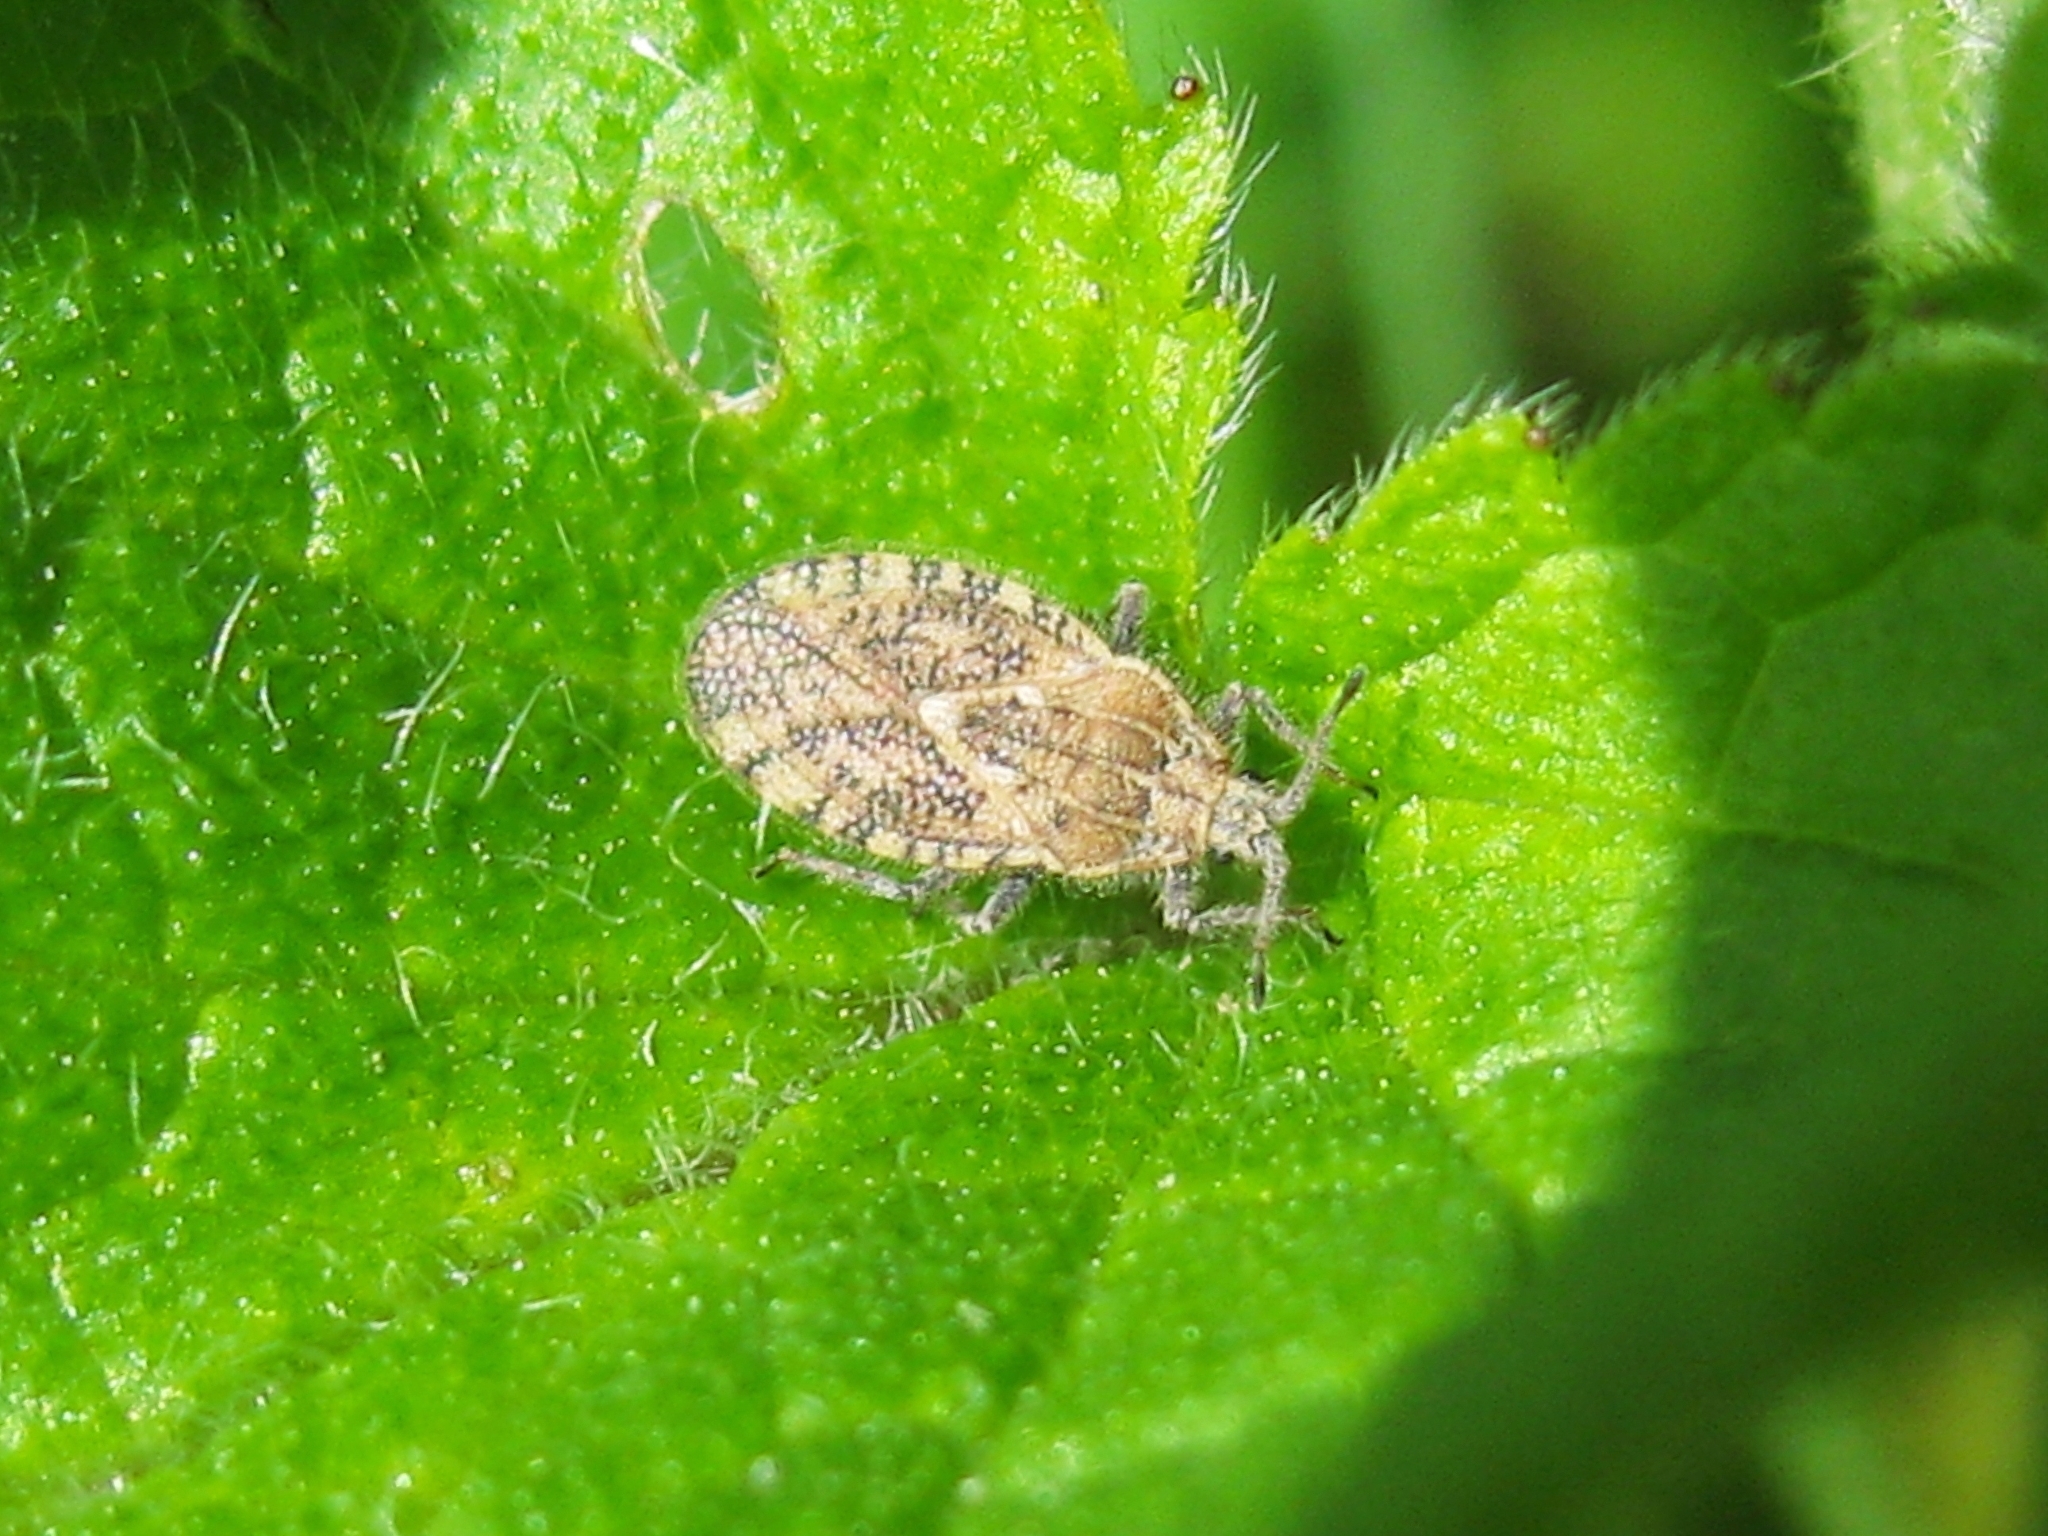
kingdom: Animalia
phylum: Arthropoda
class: Insecta
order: Hemiptera
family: Tingidae
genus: Tingis
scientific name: Tingis pilosa
